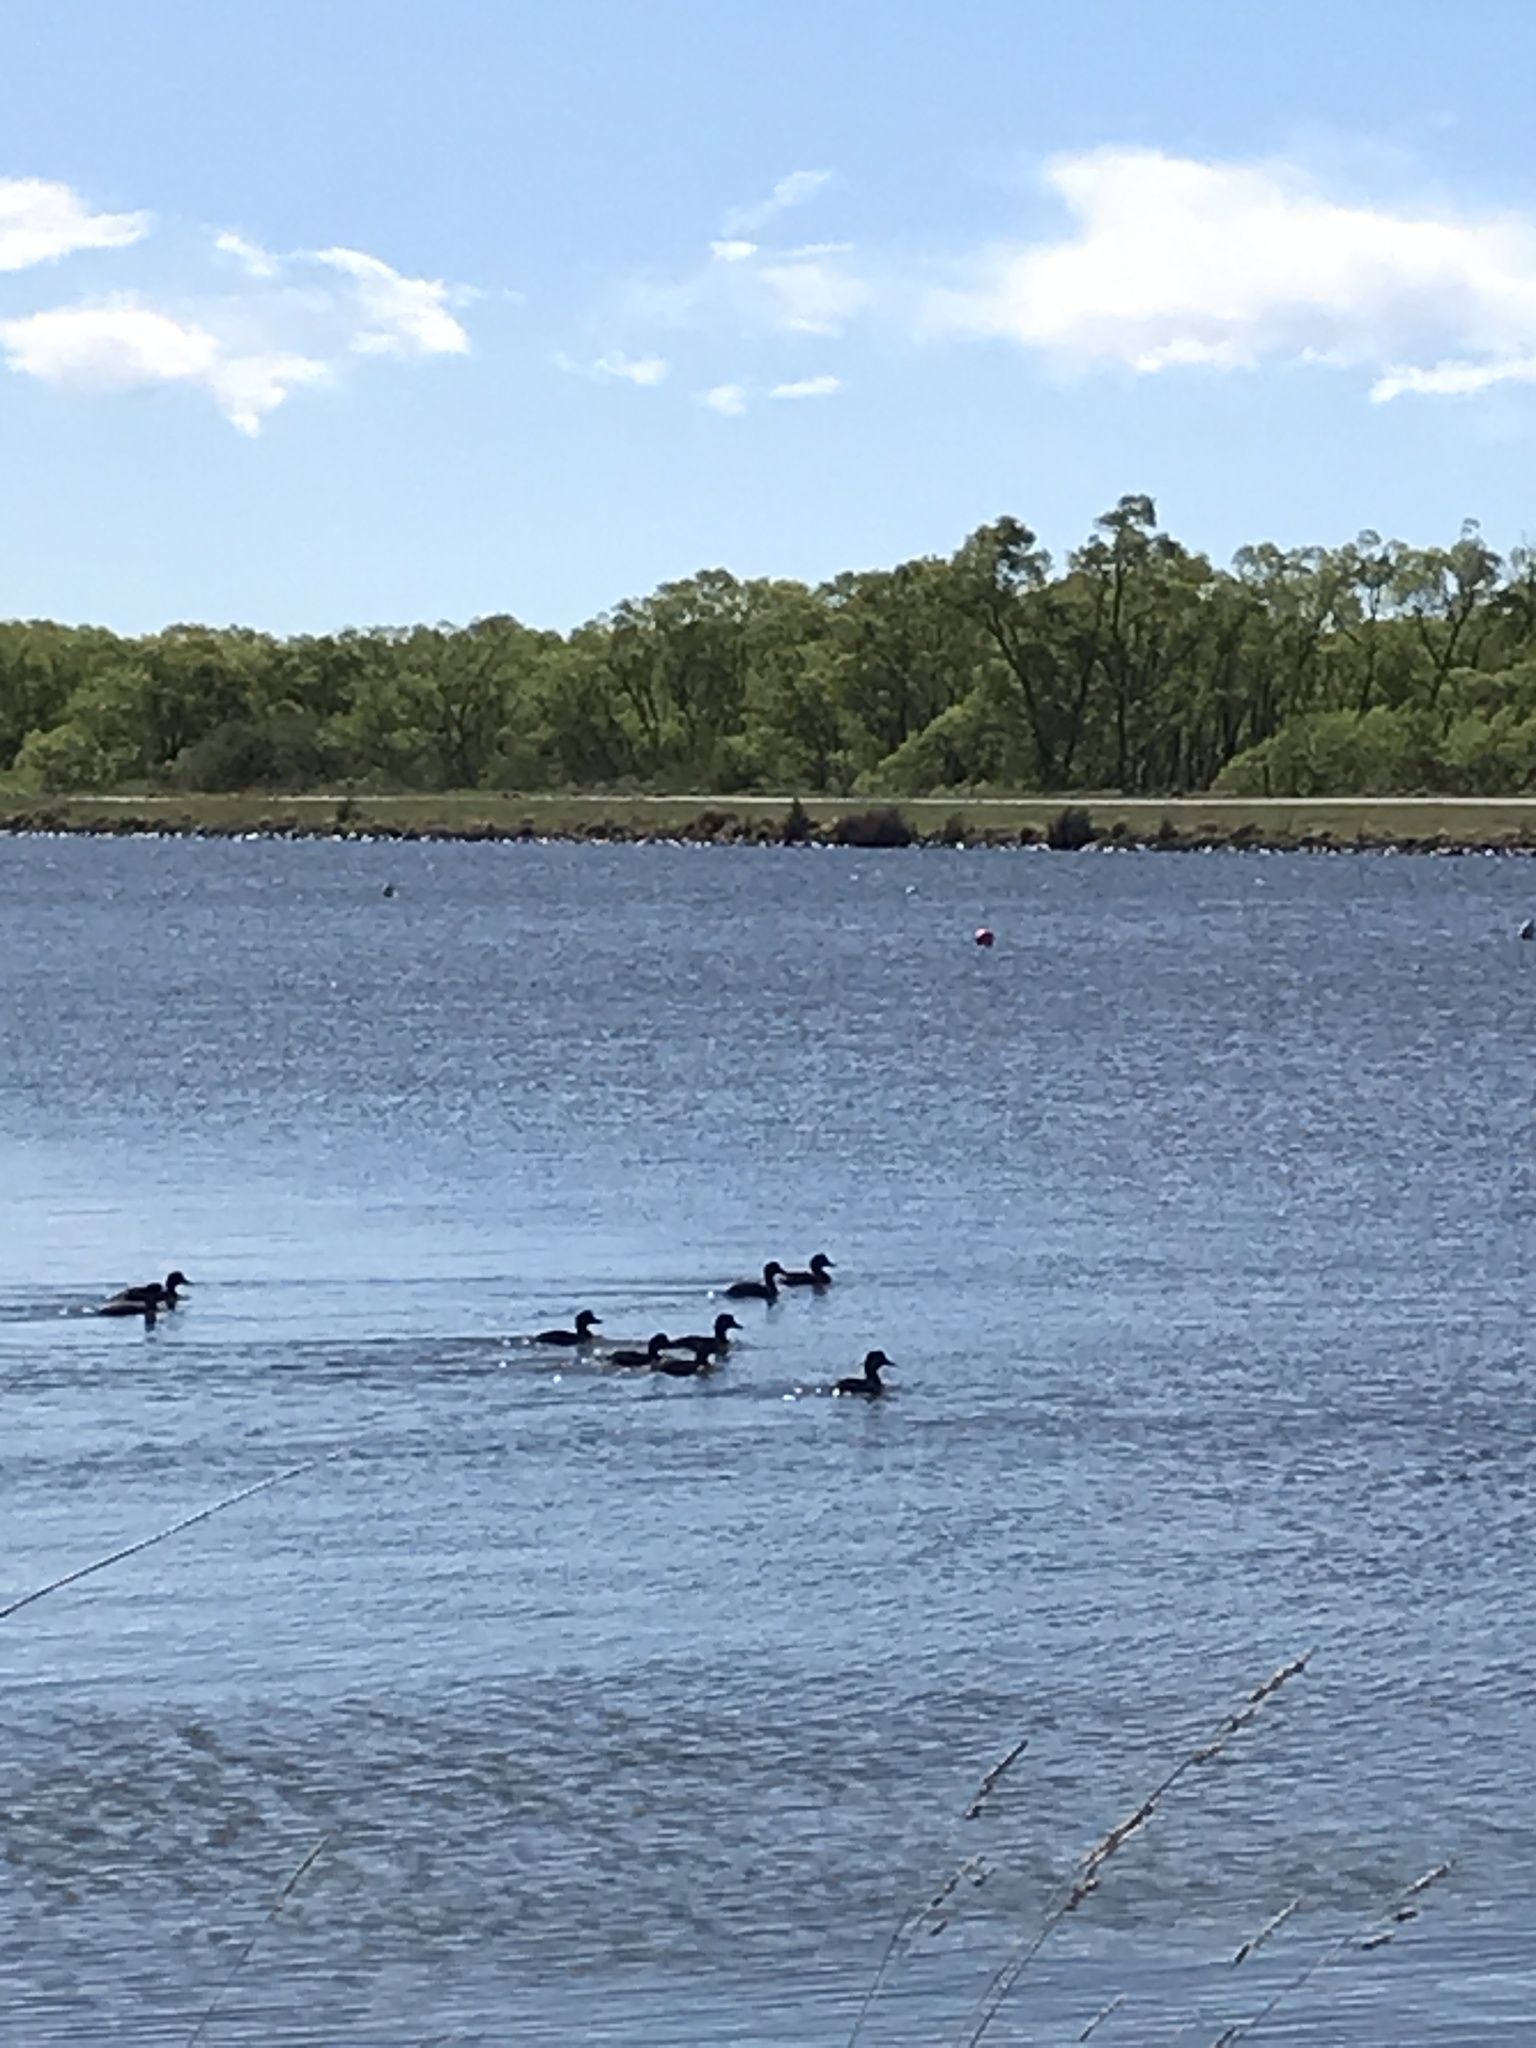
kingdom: Animalia
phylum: Chordata
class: Aves
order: Anseriformes
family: Anatidae
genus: Aythya
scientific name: Aythya novaeseelandiae
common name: New zealand scaup
